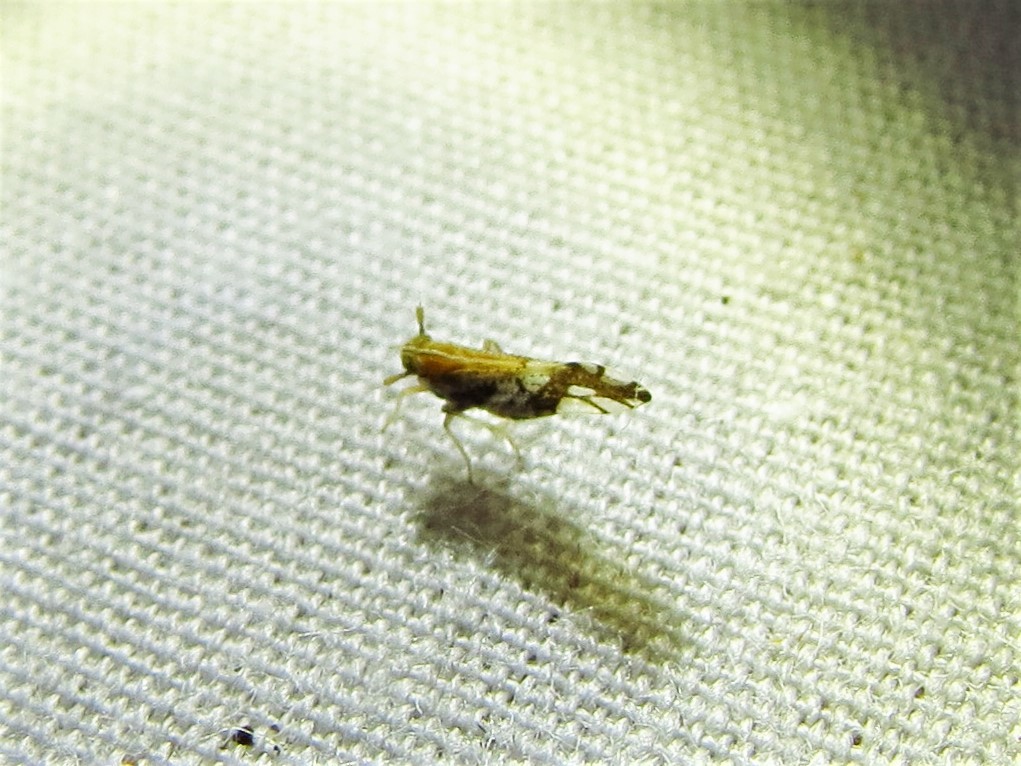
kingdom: Animalia
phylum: Arthropoda
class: Insecta
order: Hemiptera
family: Delphacidae
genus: Liburniella
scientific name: Liburniella ornata
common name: Ornate planthopper
